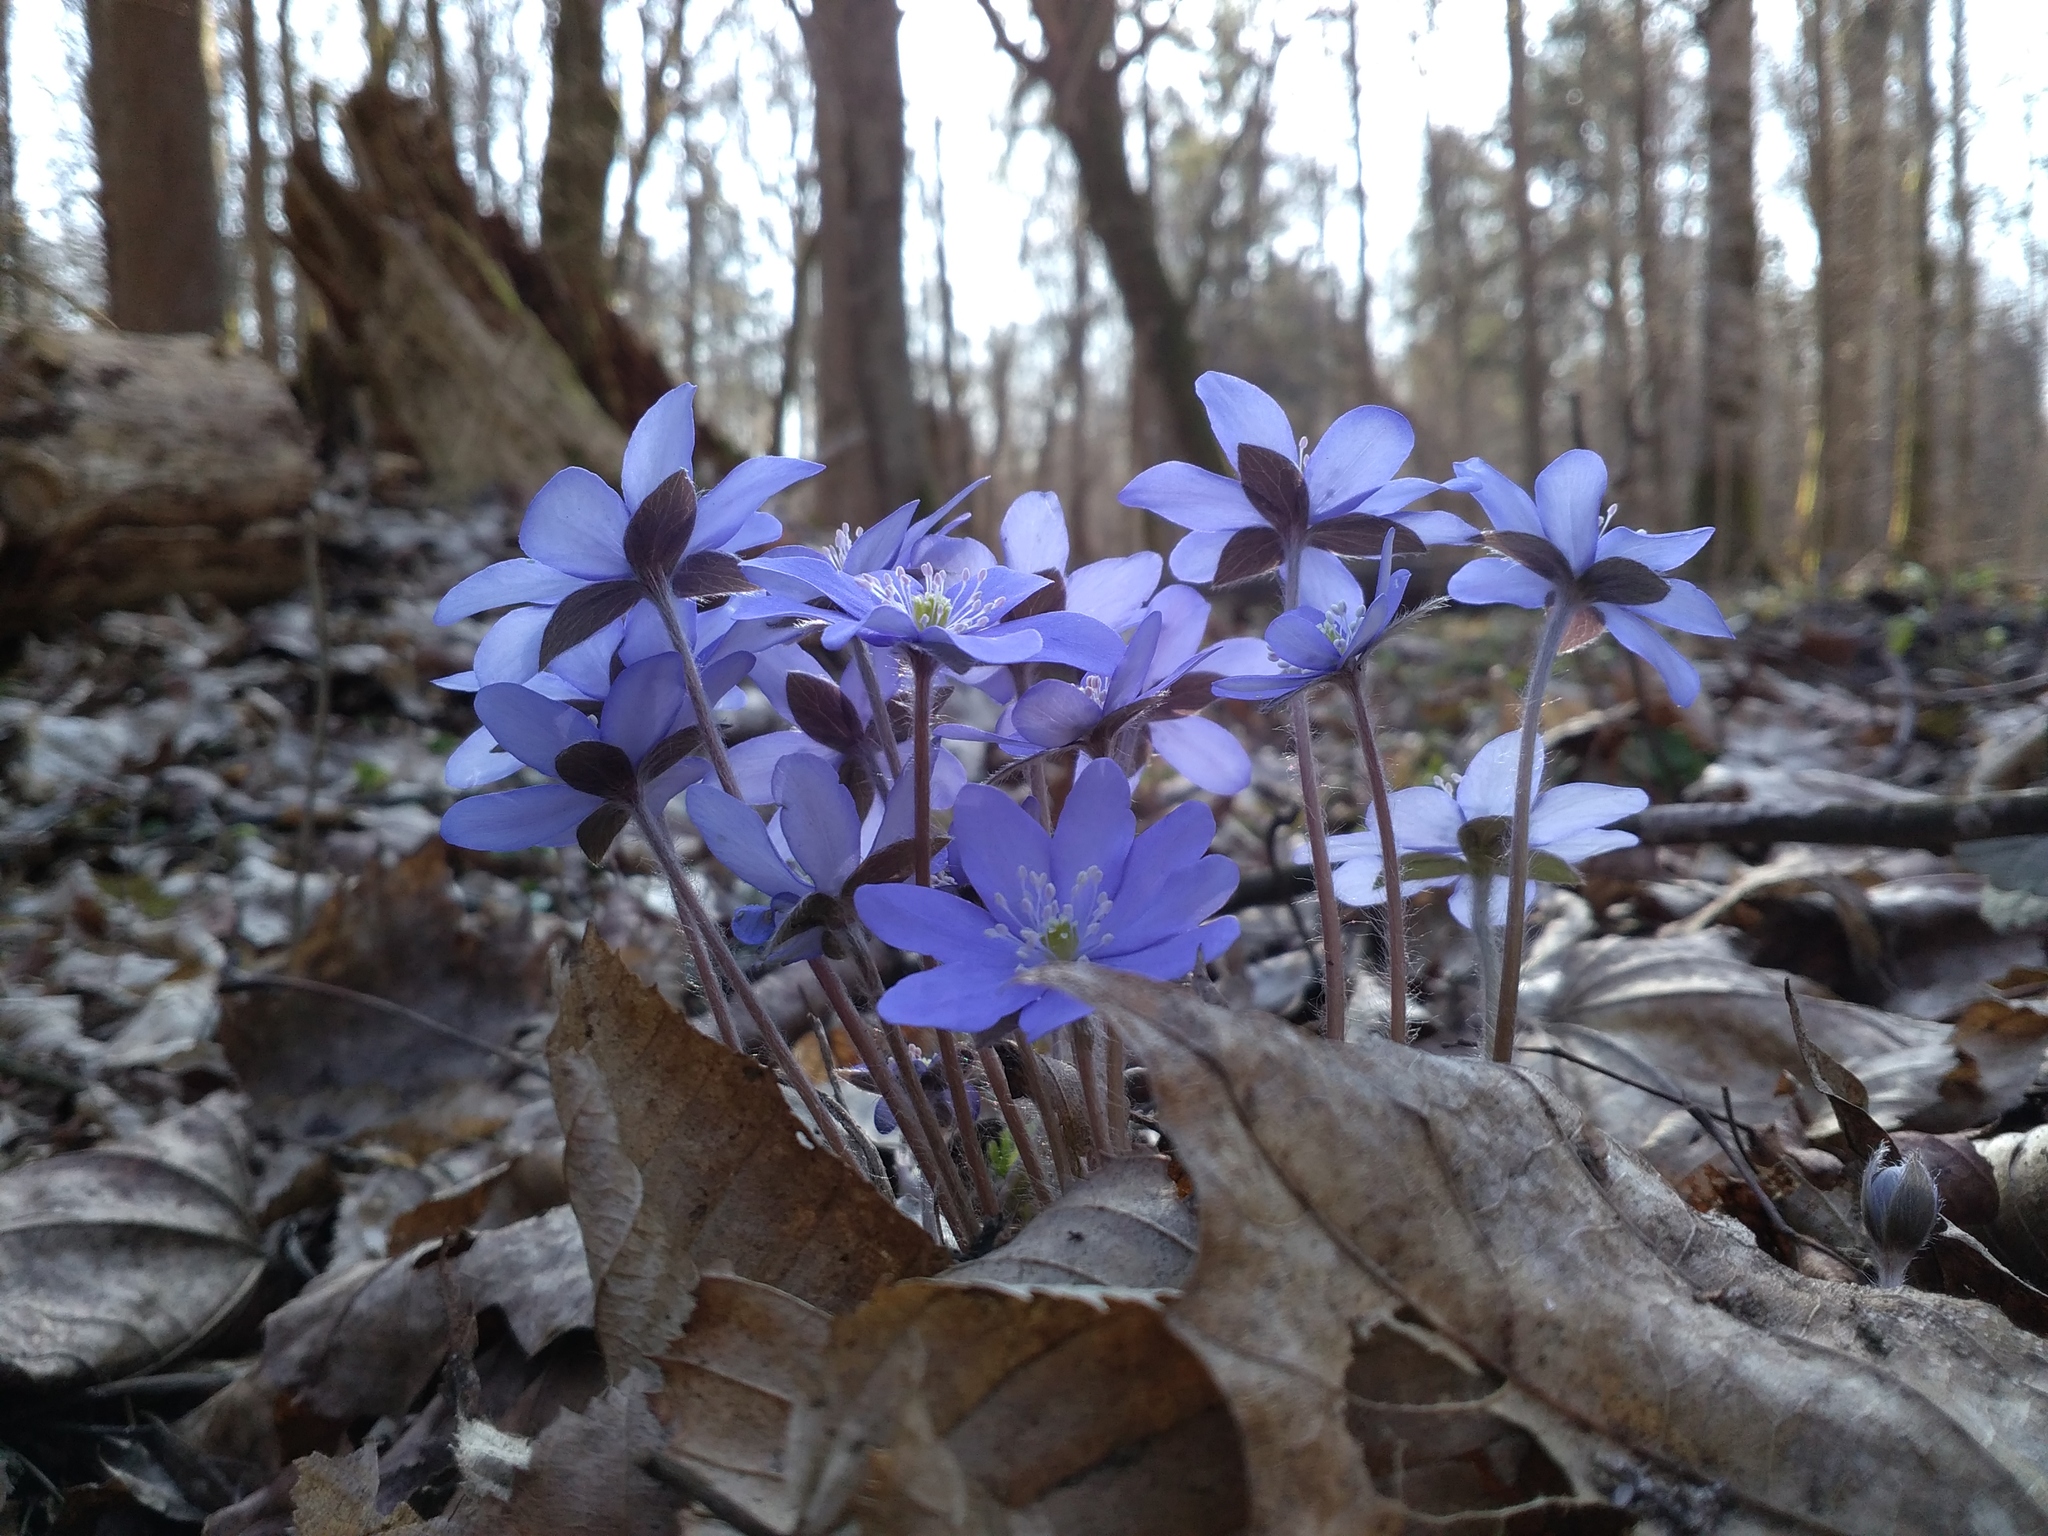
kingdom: Plantae
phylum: Tracheophyta
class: Magnoliopsida
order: Ranunculales
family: Ranunculaceae
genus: Hepatica
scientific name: Hepatica nobilis
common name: Liverleaf
